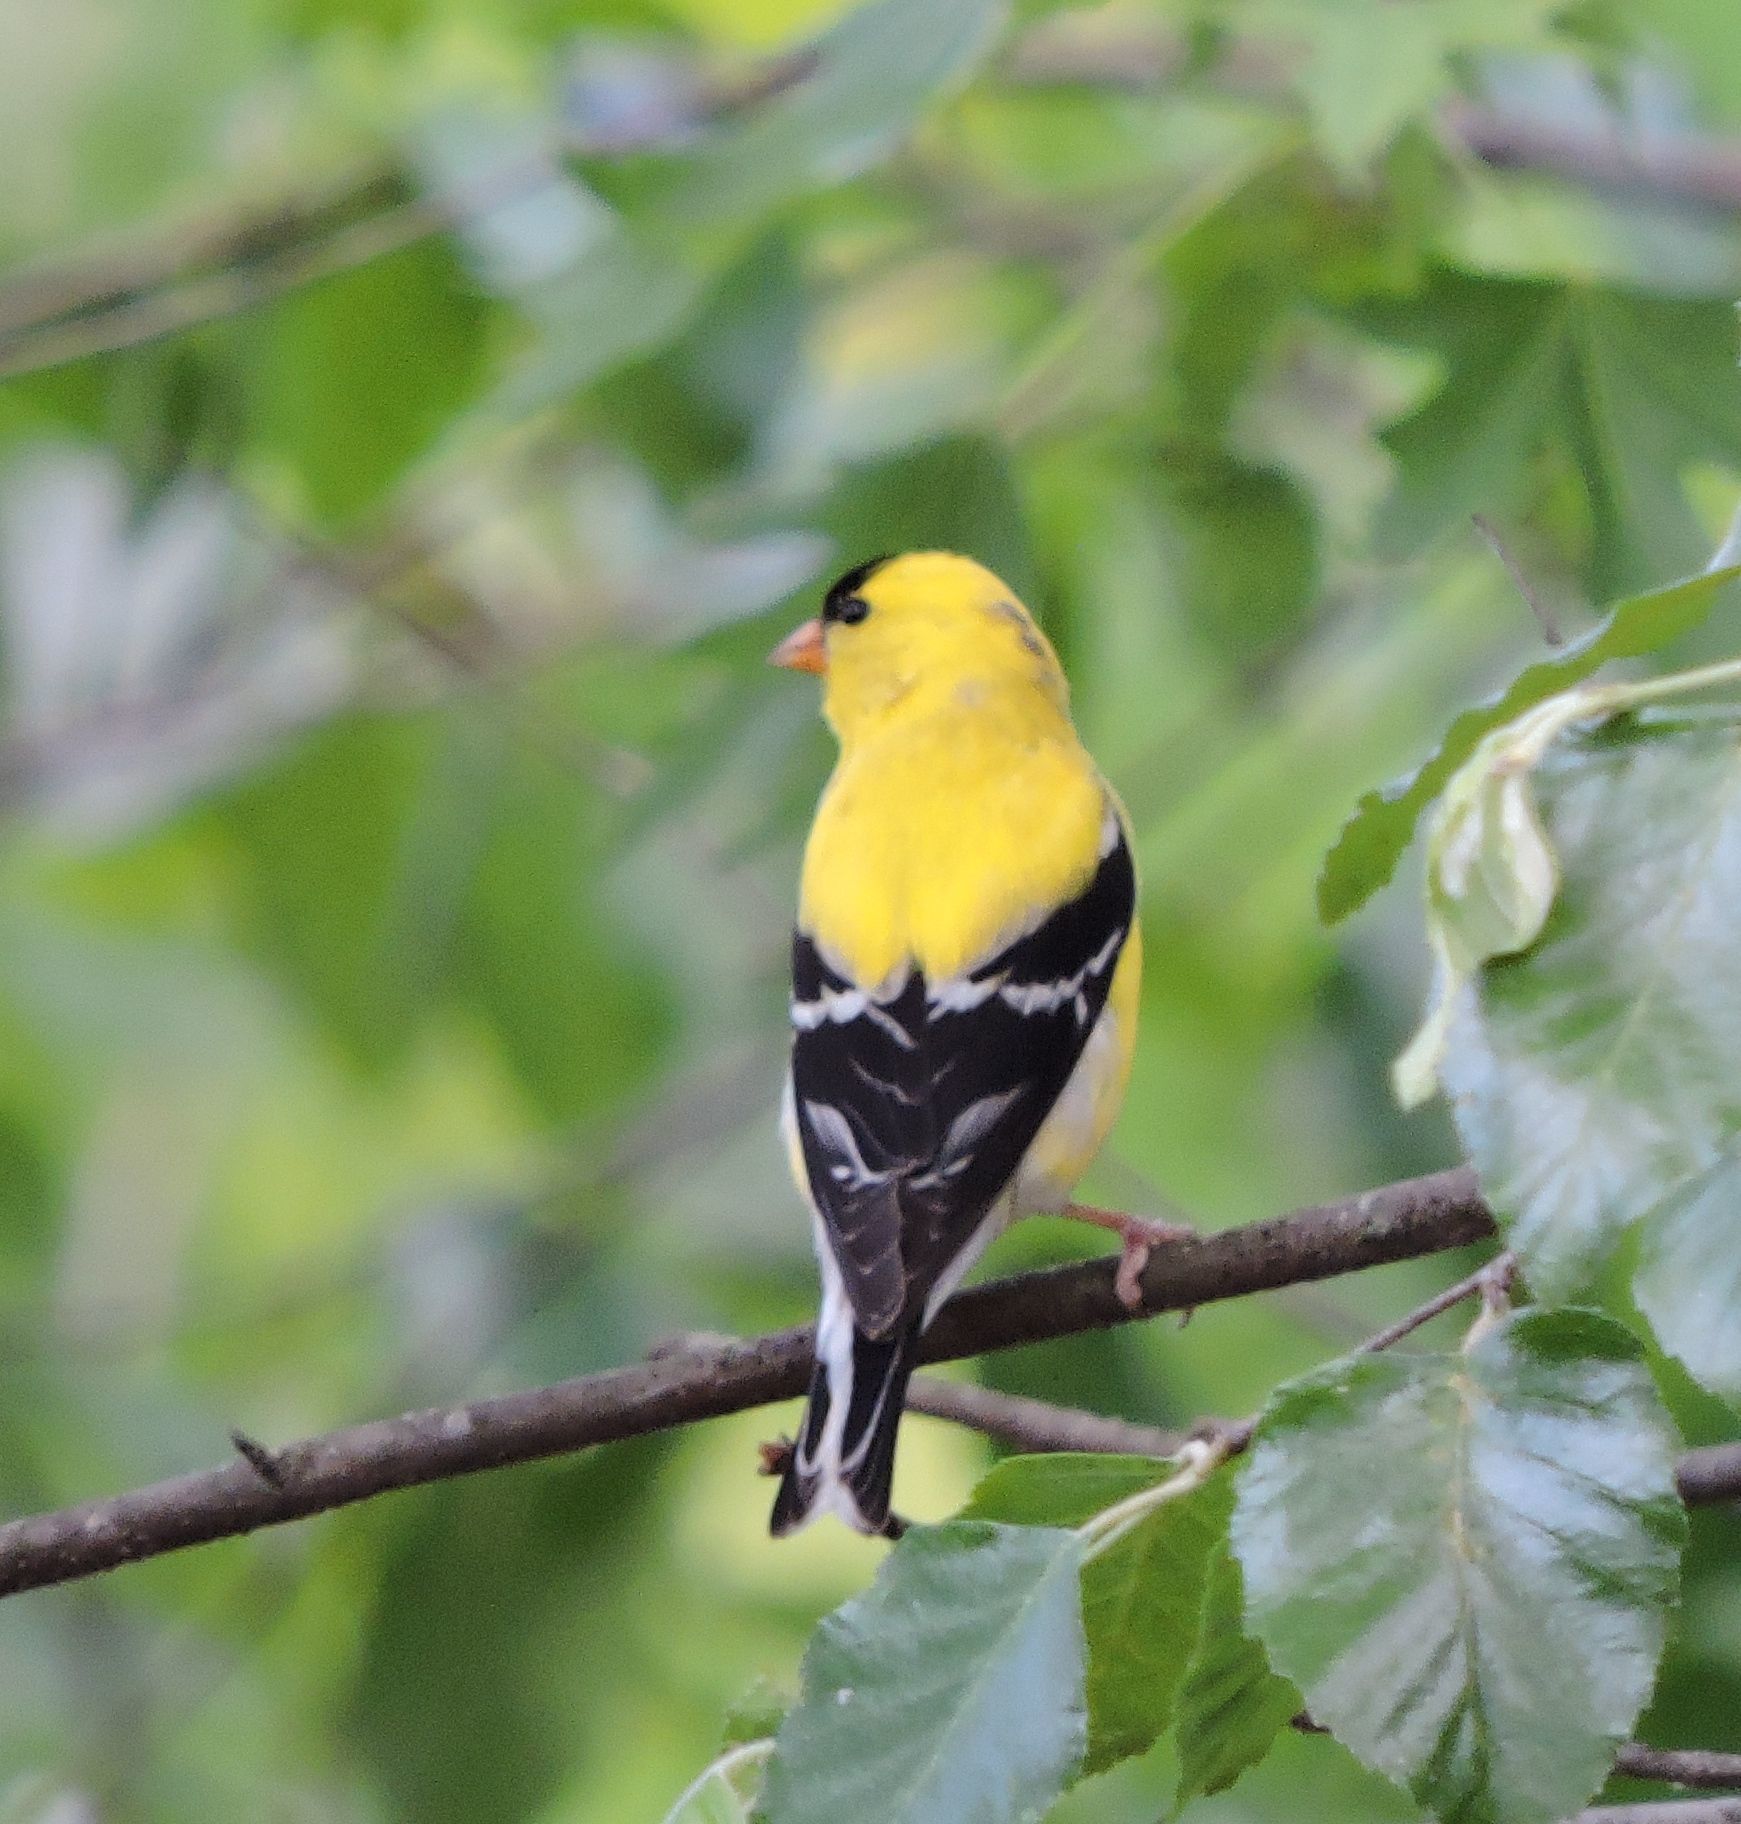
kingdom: Animalia
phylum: Chordata
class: Aves
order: Passeriformes
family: Fringillidae
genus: Spinus
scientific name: Spinus tristis
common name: American goldfinch
